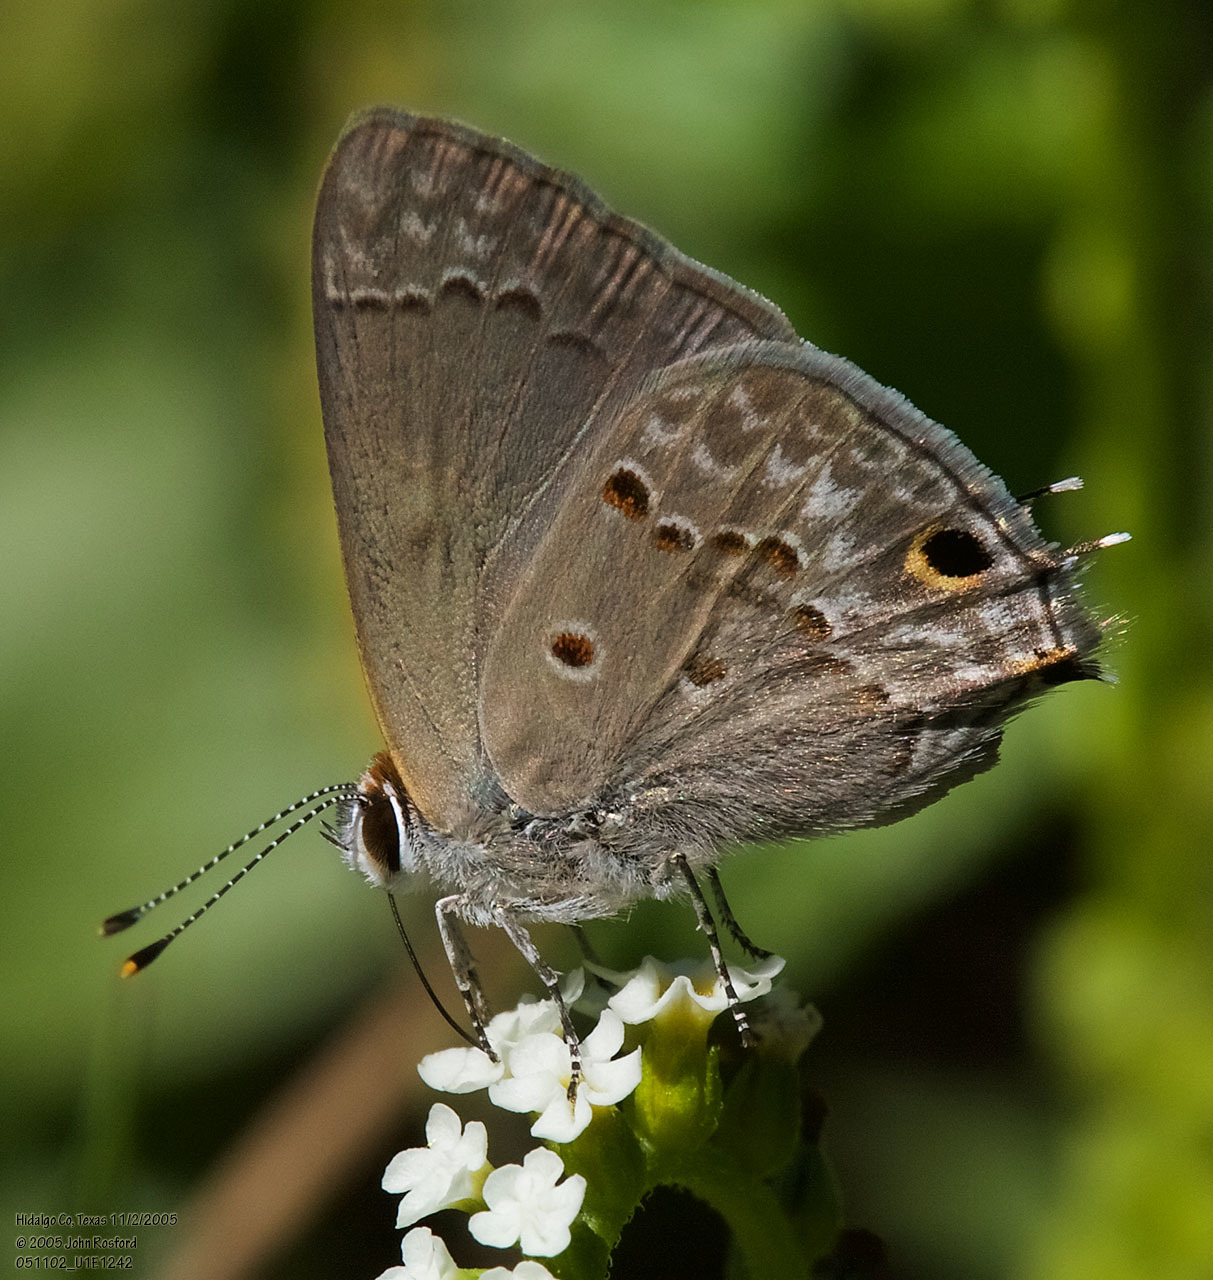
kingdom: Animalia
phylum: Arthropoda
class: Insecta
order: Lepidoptera
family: Lycaenidae
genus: Callicista
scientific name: Callicista columella
